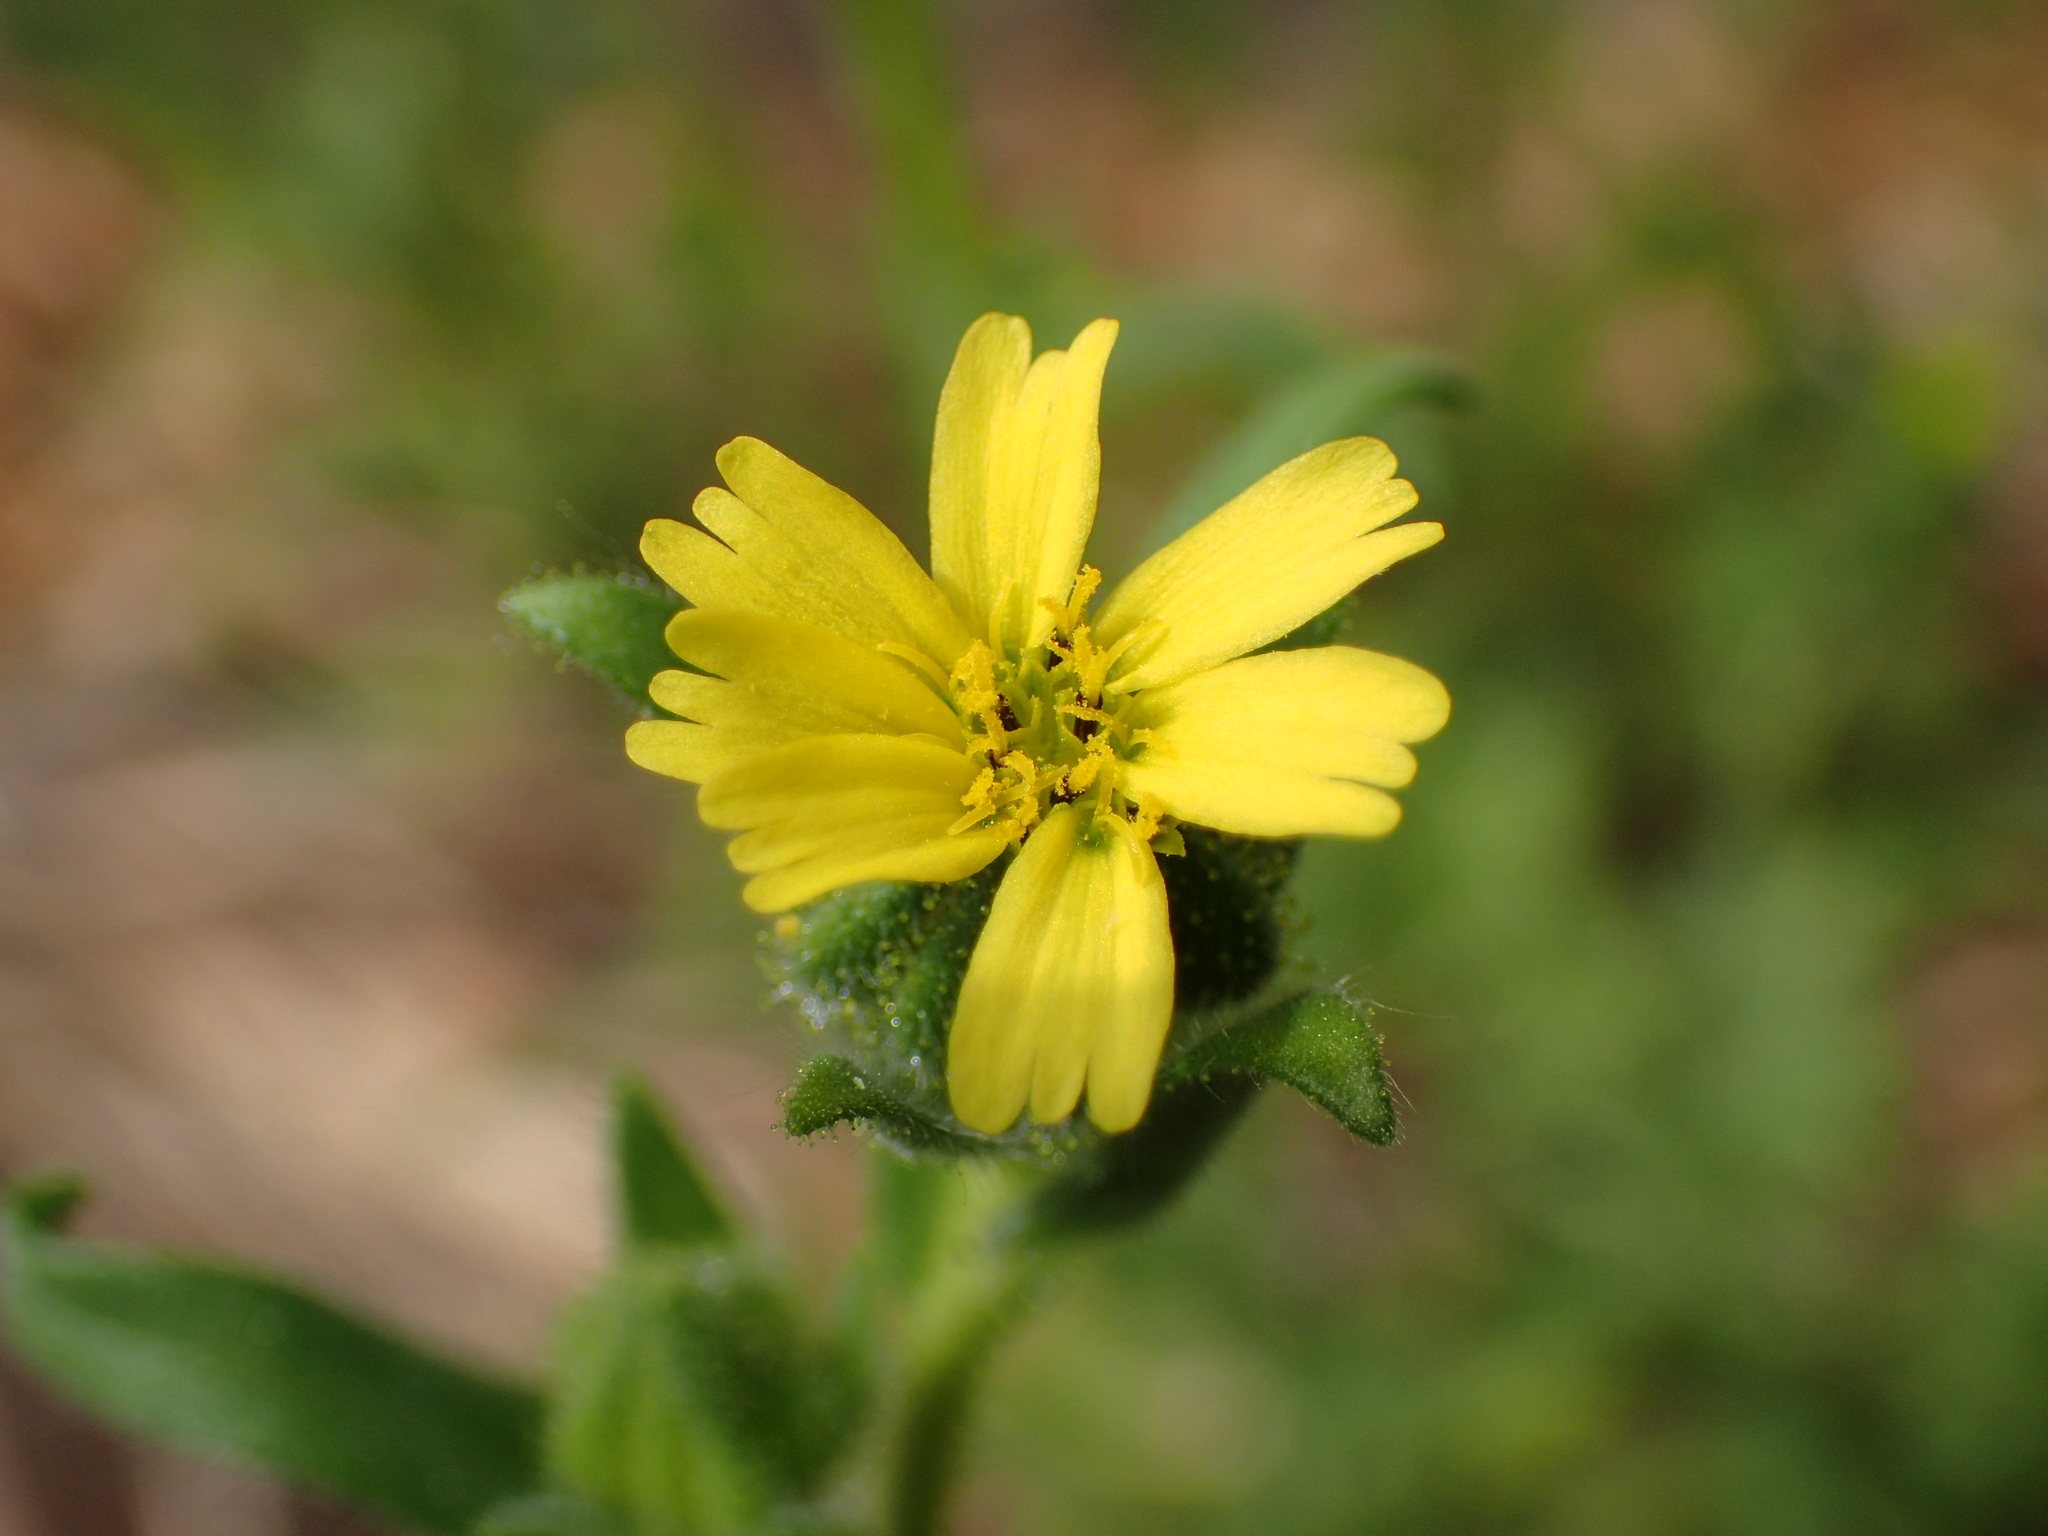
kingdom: Plantae
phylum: Tracheophyta
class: Magnoliopsida
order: Asterales
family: Asteraceae
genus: Madia
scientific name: Madia gracilis
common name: Grassy tarweed
